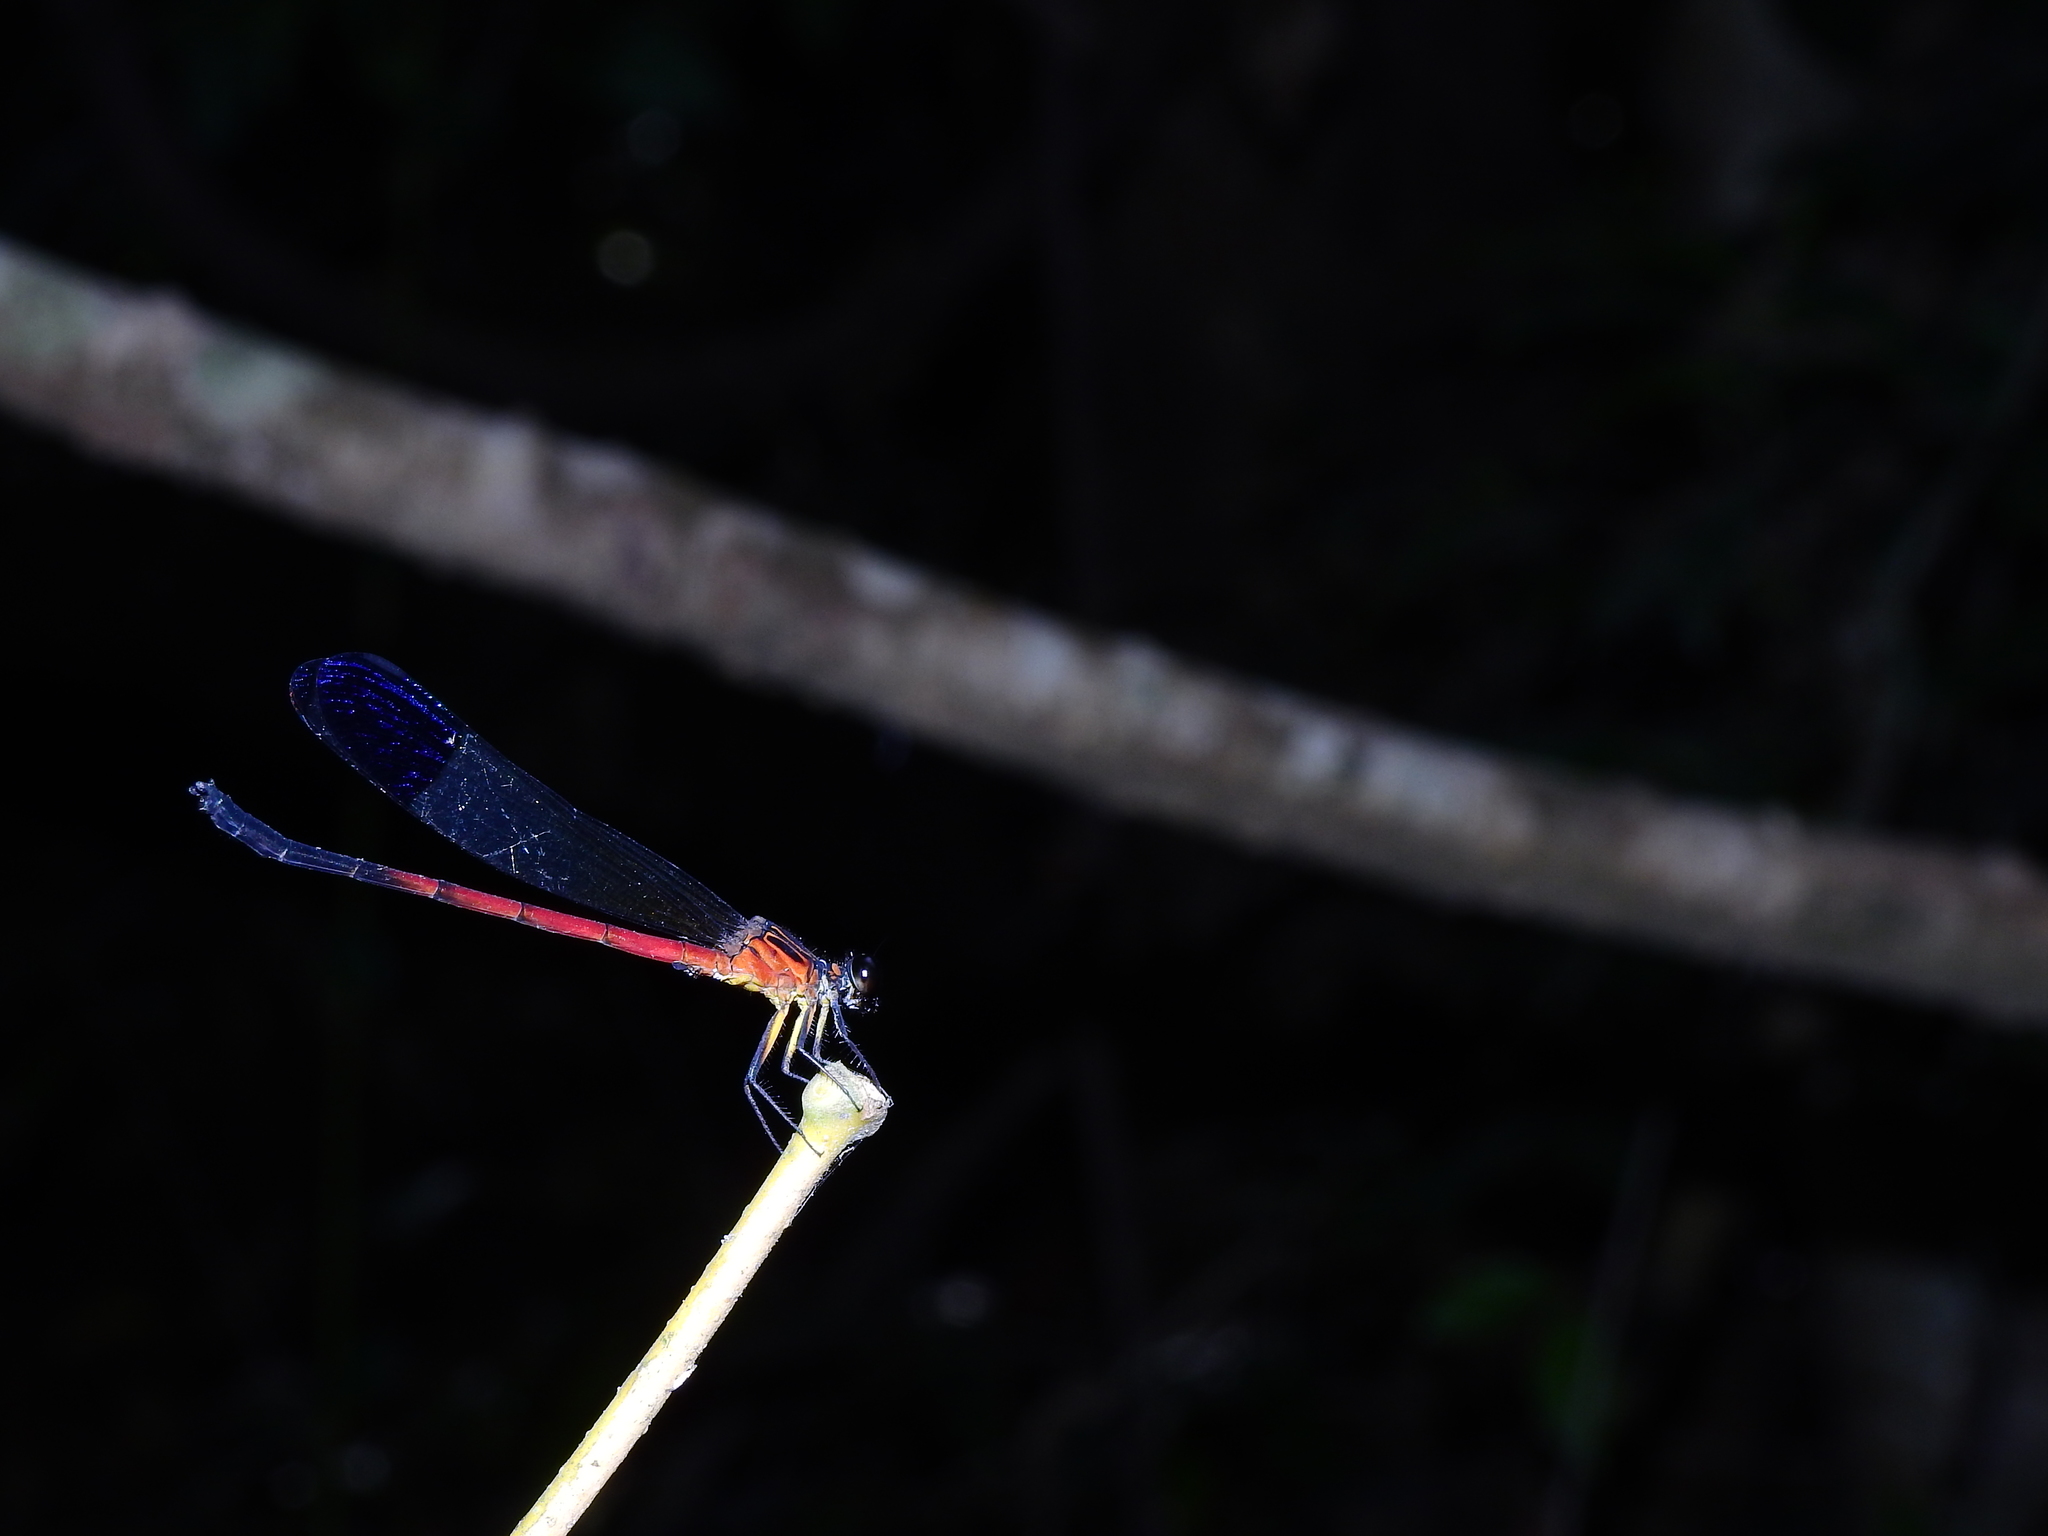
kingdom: Animalia
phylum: Arthropoda
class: Insecta
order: Odonata
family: Euphaeidae
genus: Euphaea
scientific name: Euphaea dispar
